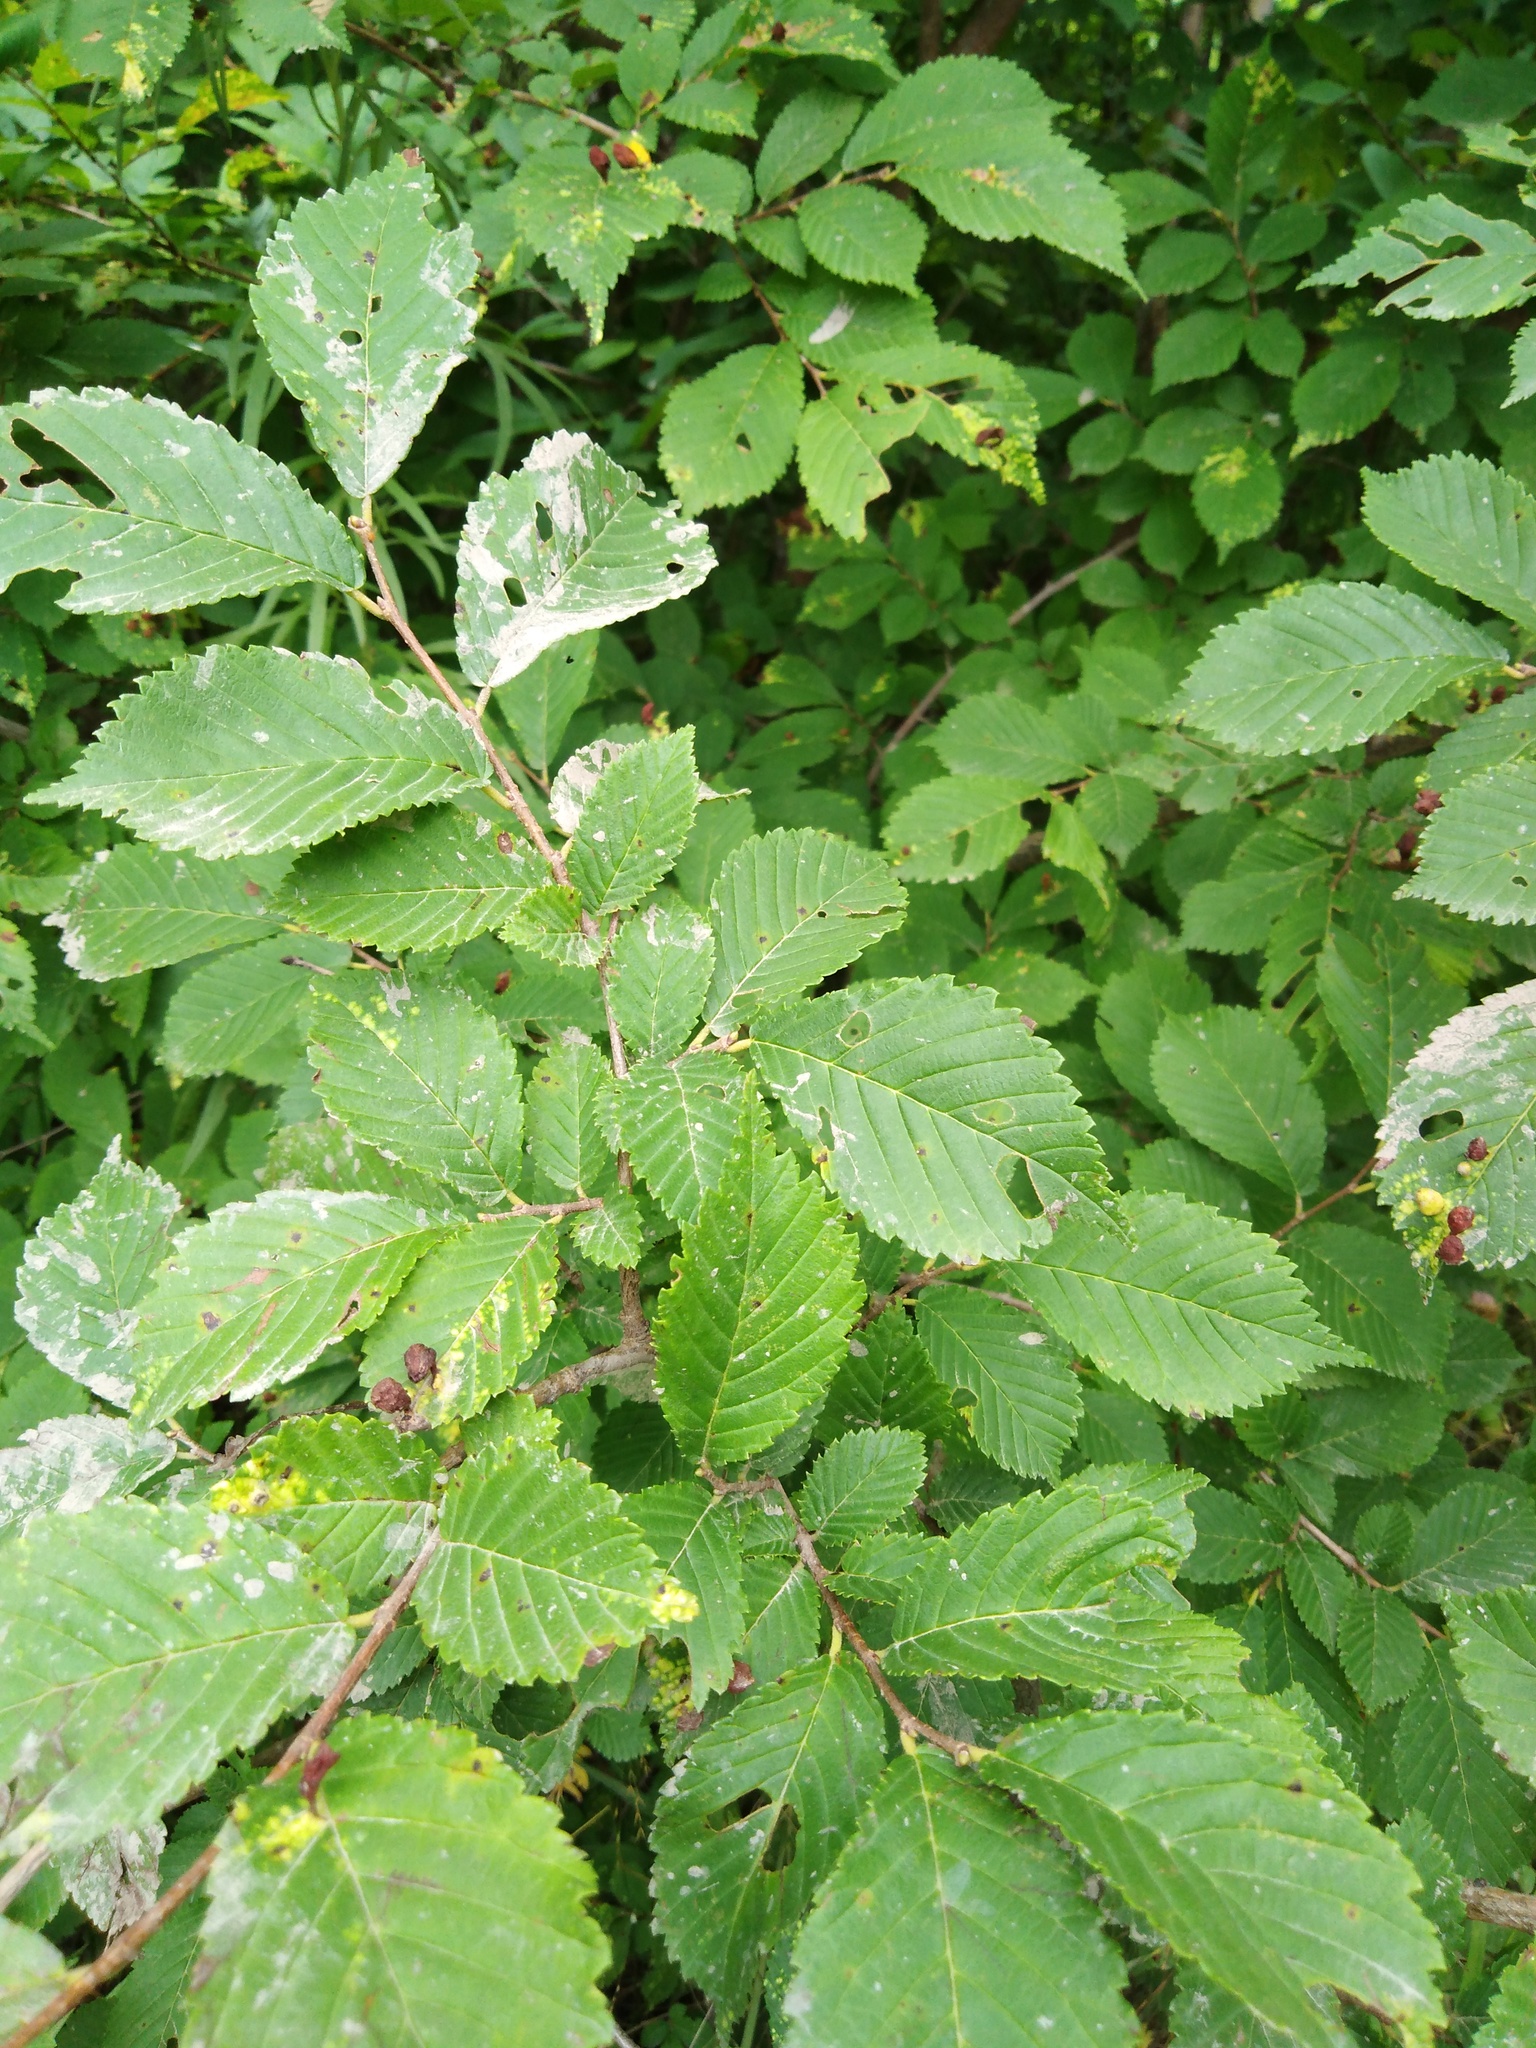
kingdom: Plantae
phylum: Tracheophyta
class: Magnoliopsida
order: Rosales
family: Ulmaceae
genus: Ulmus
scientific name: Ulmus davidiana
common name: Japanese elm
